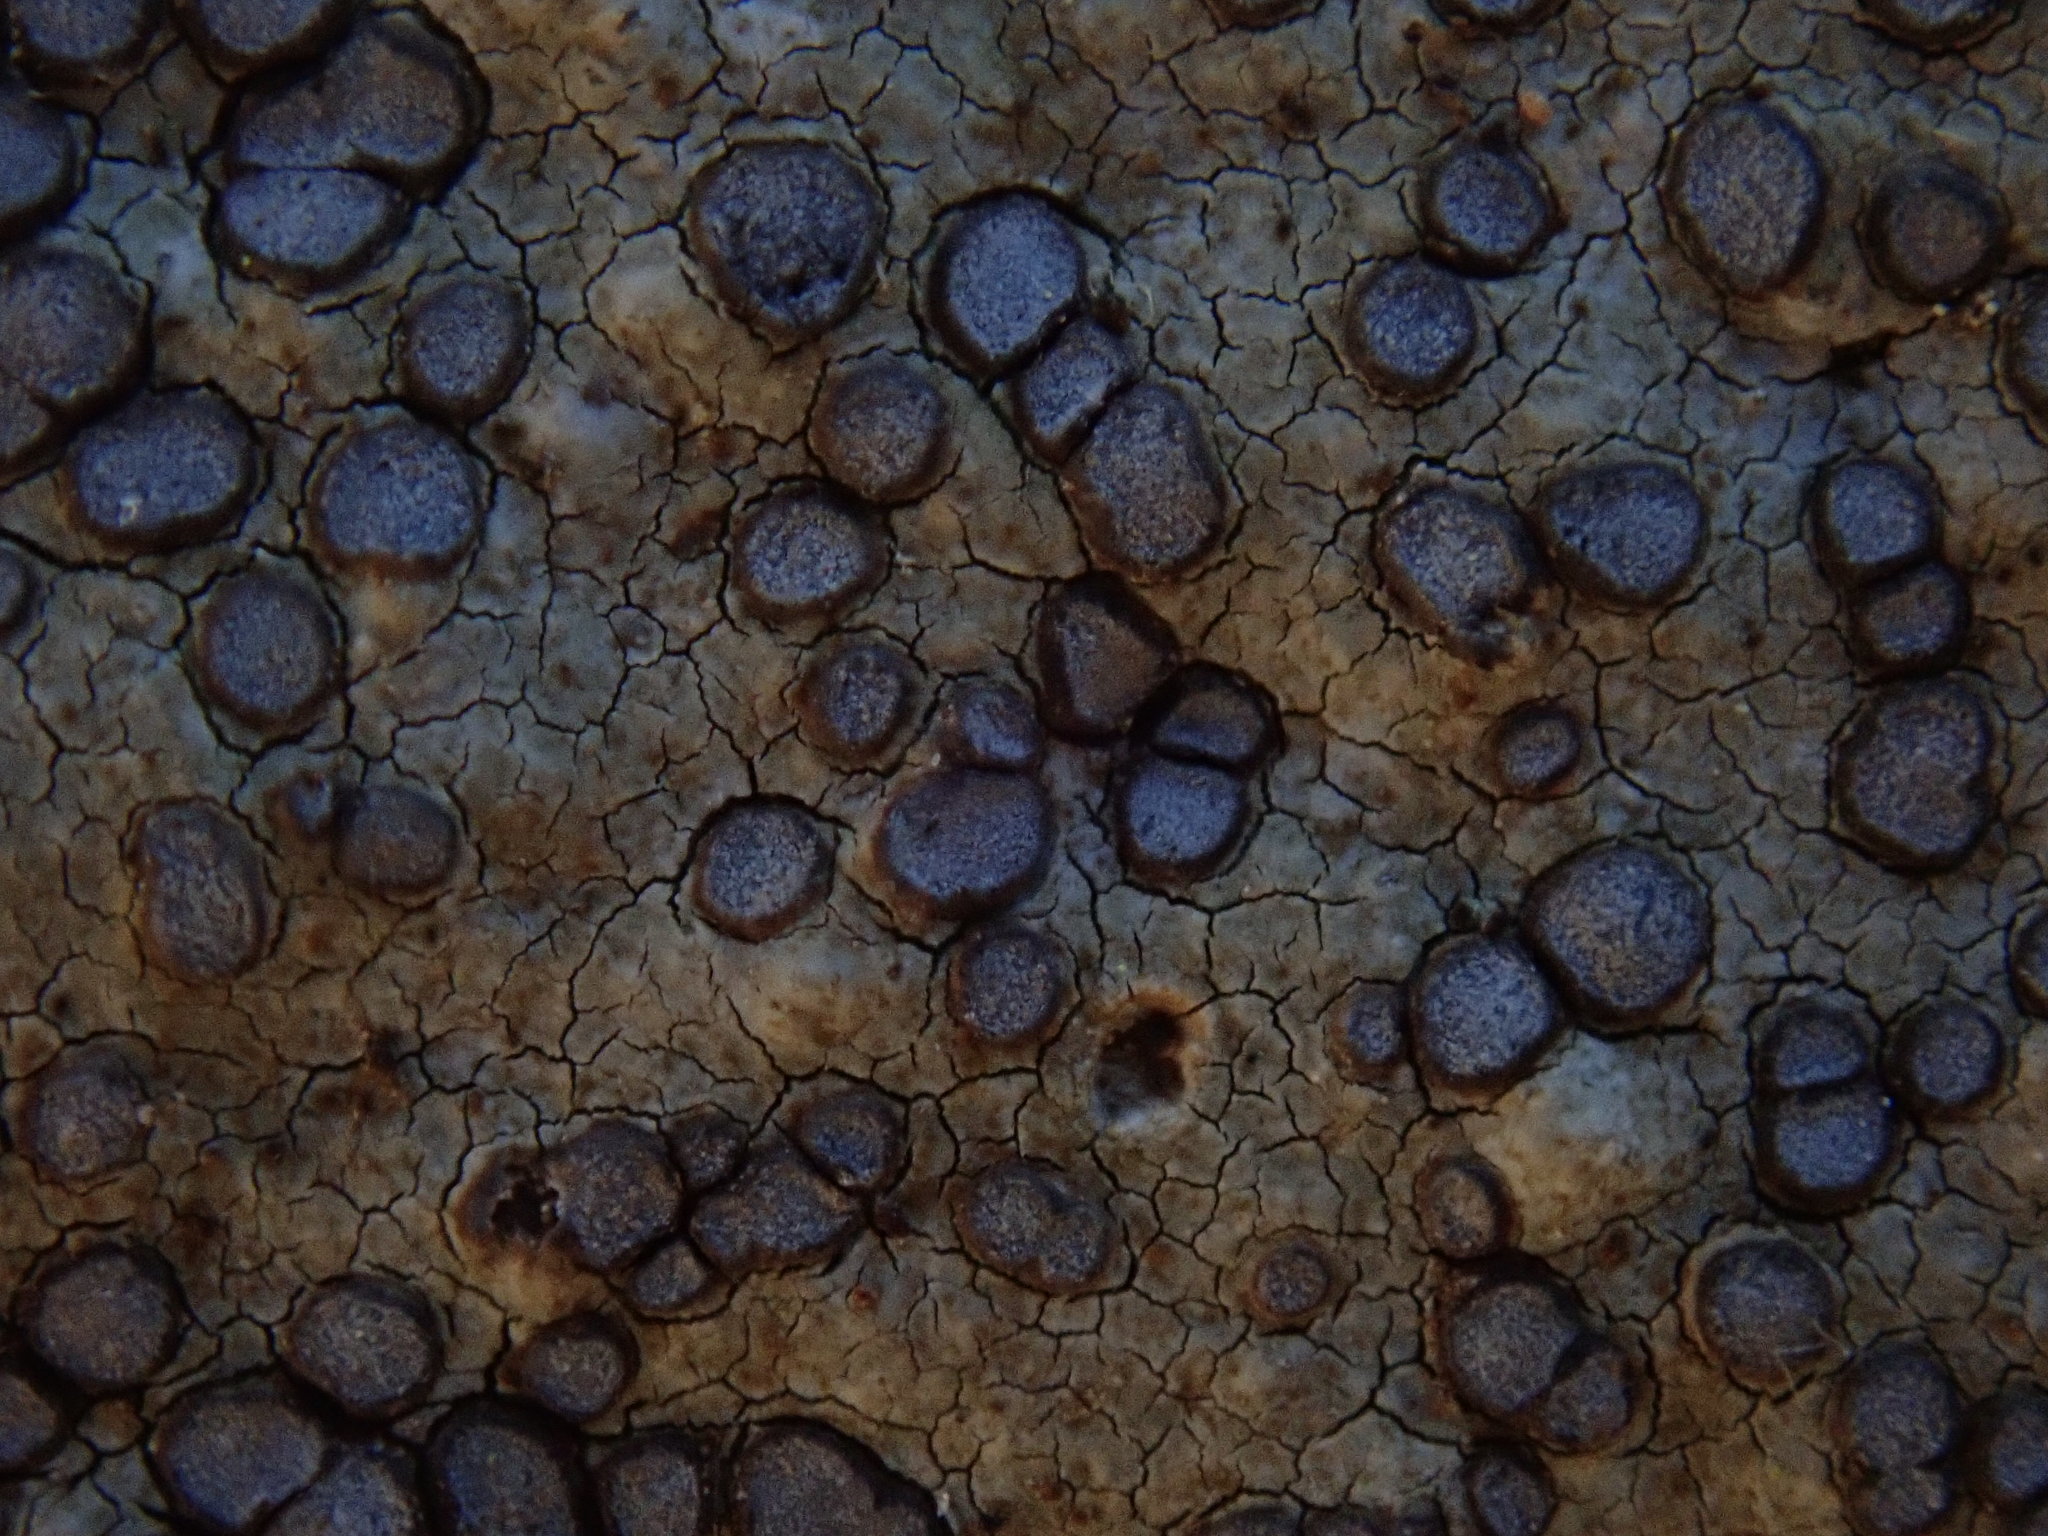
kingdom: Fungi
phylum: Ascomycota
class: Lecanoromycetes
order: Lecideales
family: Lecideaceae
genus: Porpidia
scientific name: Porpidia albocaerulescens
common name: Smokey-eyed boulder lichen
